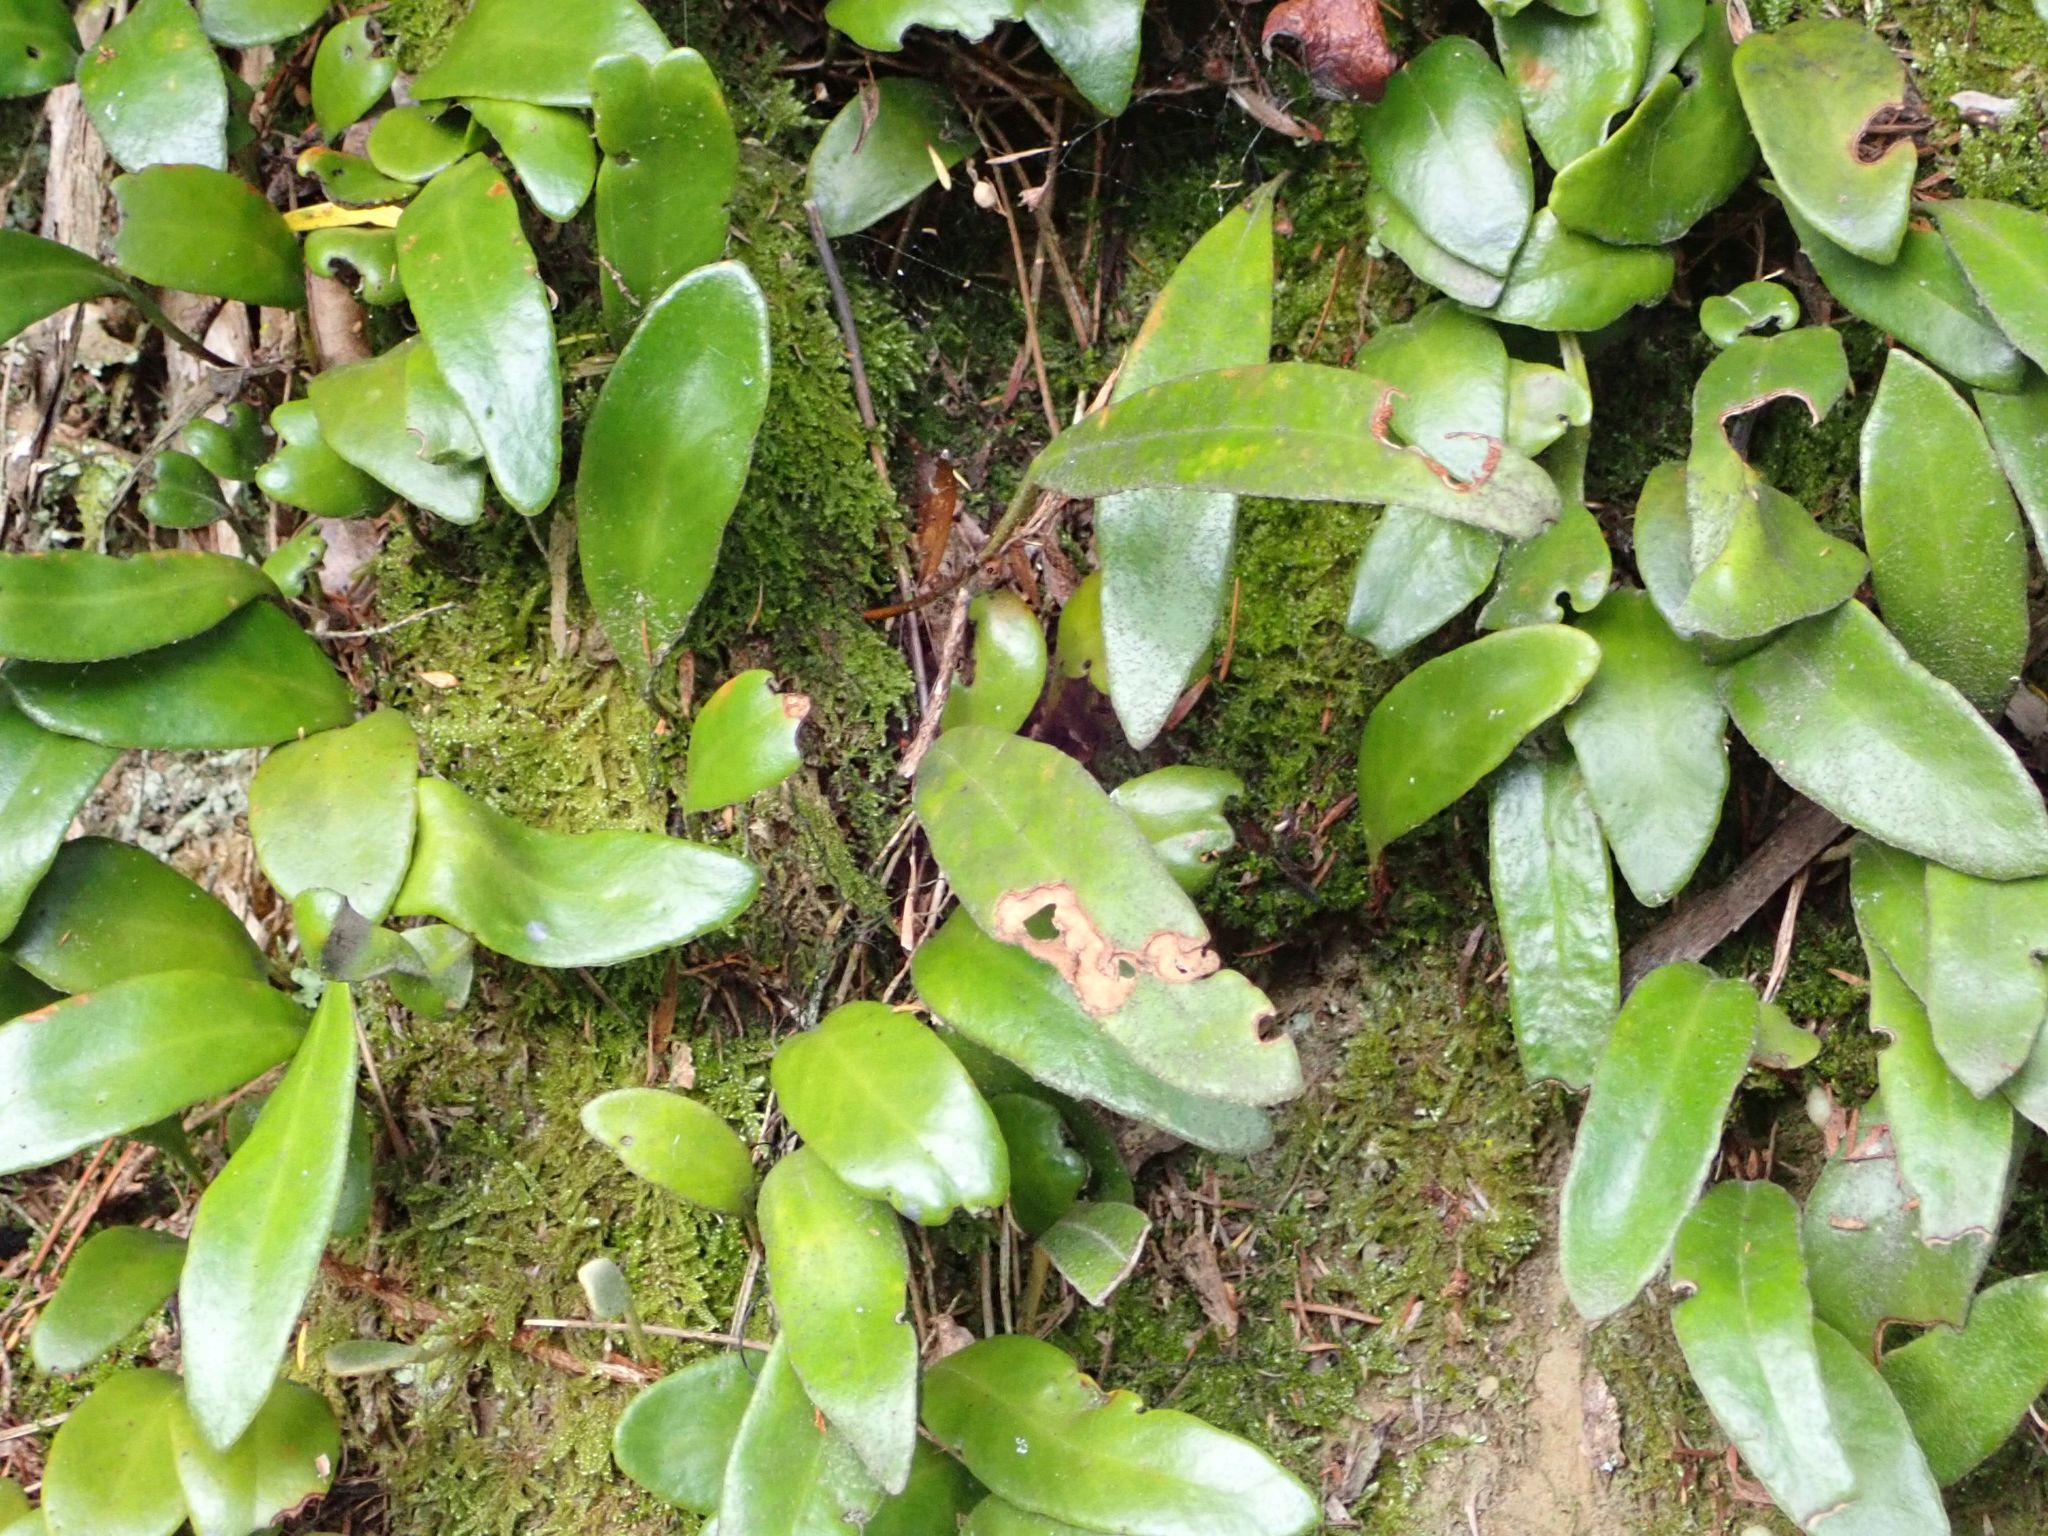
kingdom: Plantae
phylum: Tracheophyta
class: Polypodiopsida
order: Polypodiales
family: Polypodiaceae
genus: Pyrrosia
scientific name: Pyrrosia eleagnifolia
